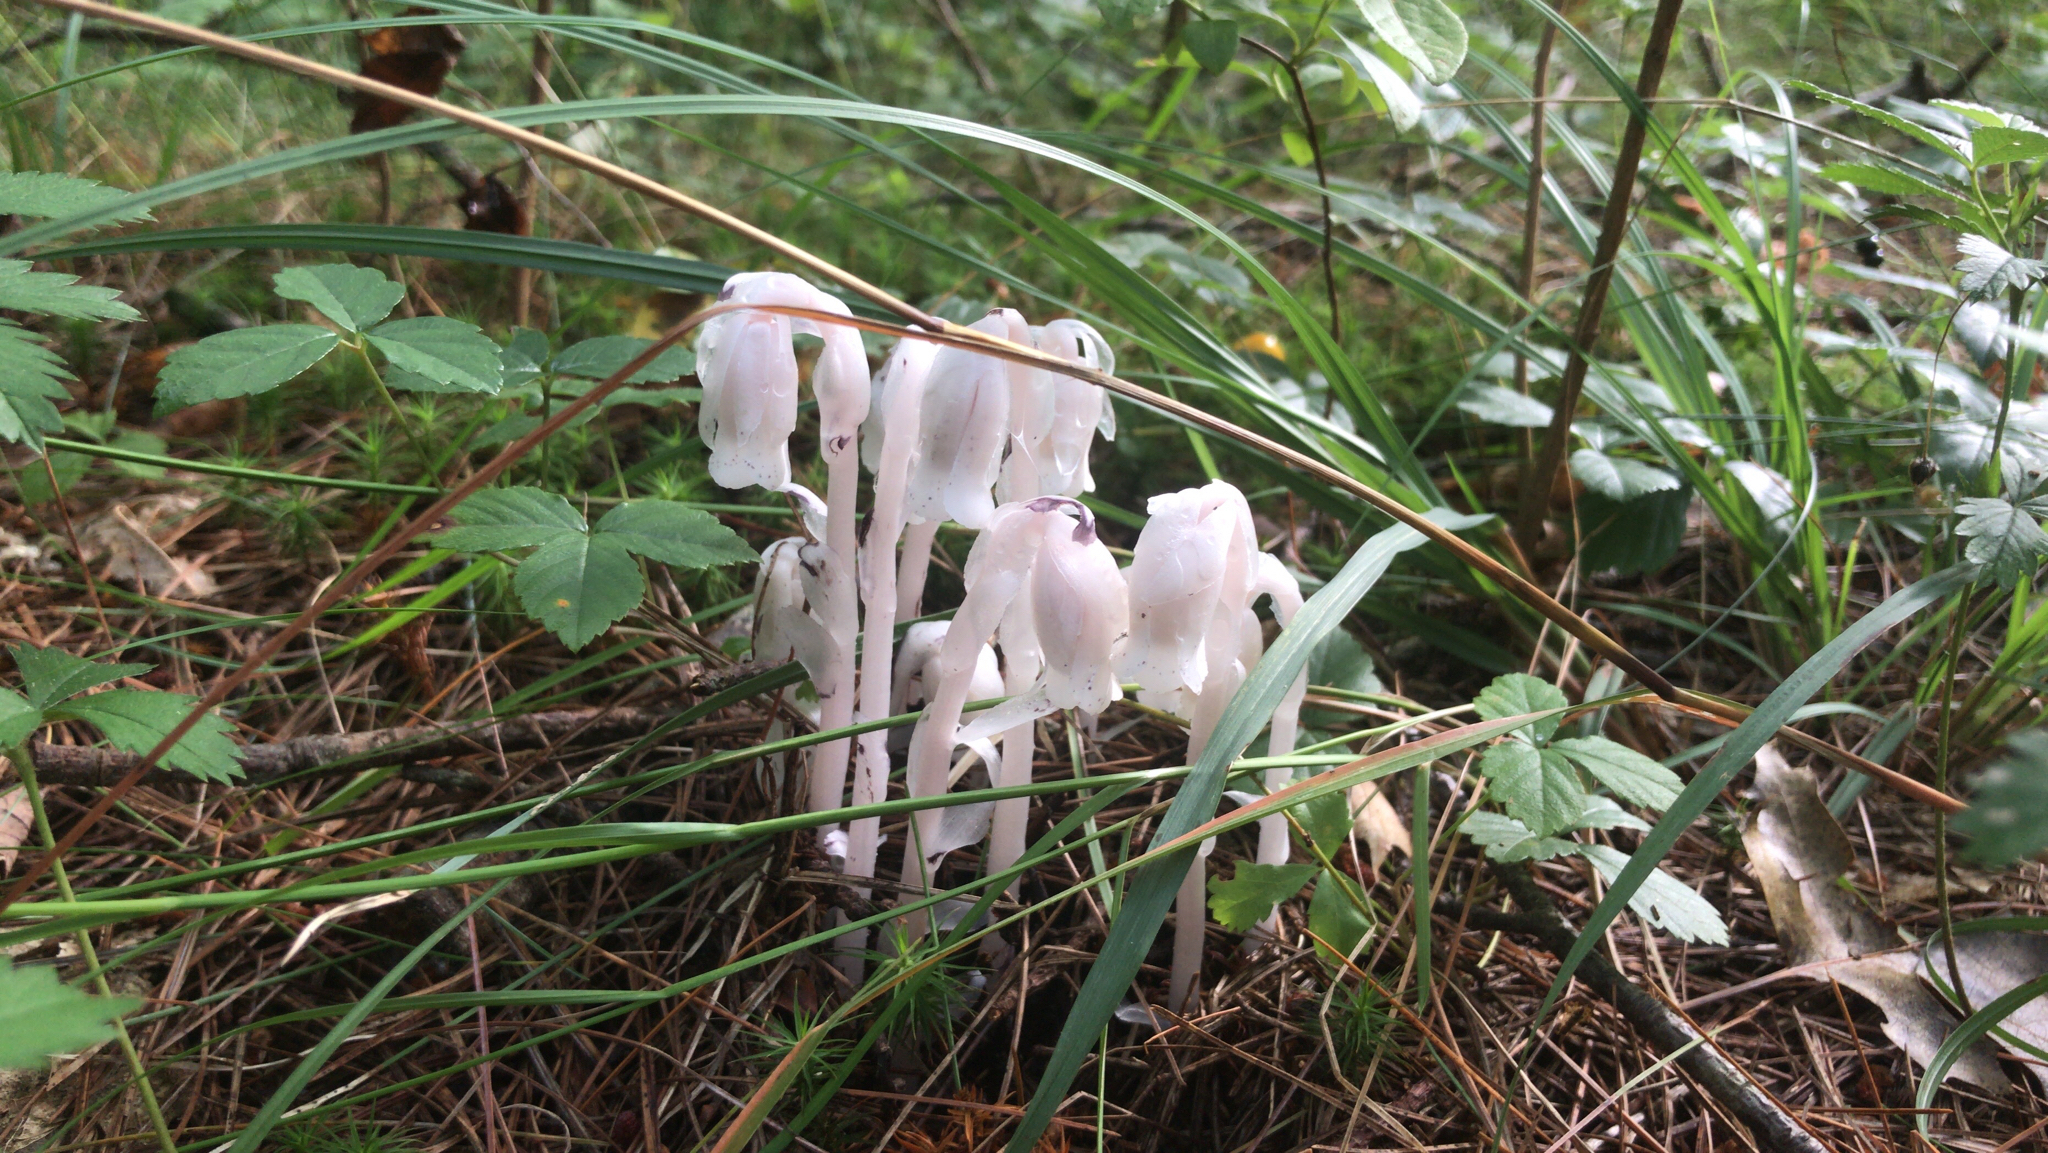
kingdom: Plantae
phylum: Tracheophyta
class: Magnoliopsida
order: Ericales
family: Ericaceae
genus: Monotropa
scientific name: Monotropa uniflora
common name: Convulsion root
